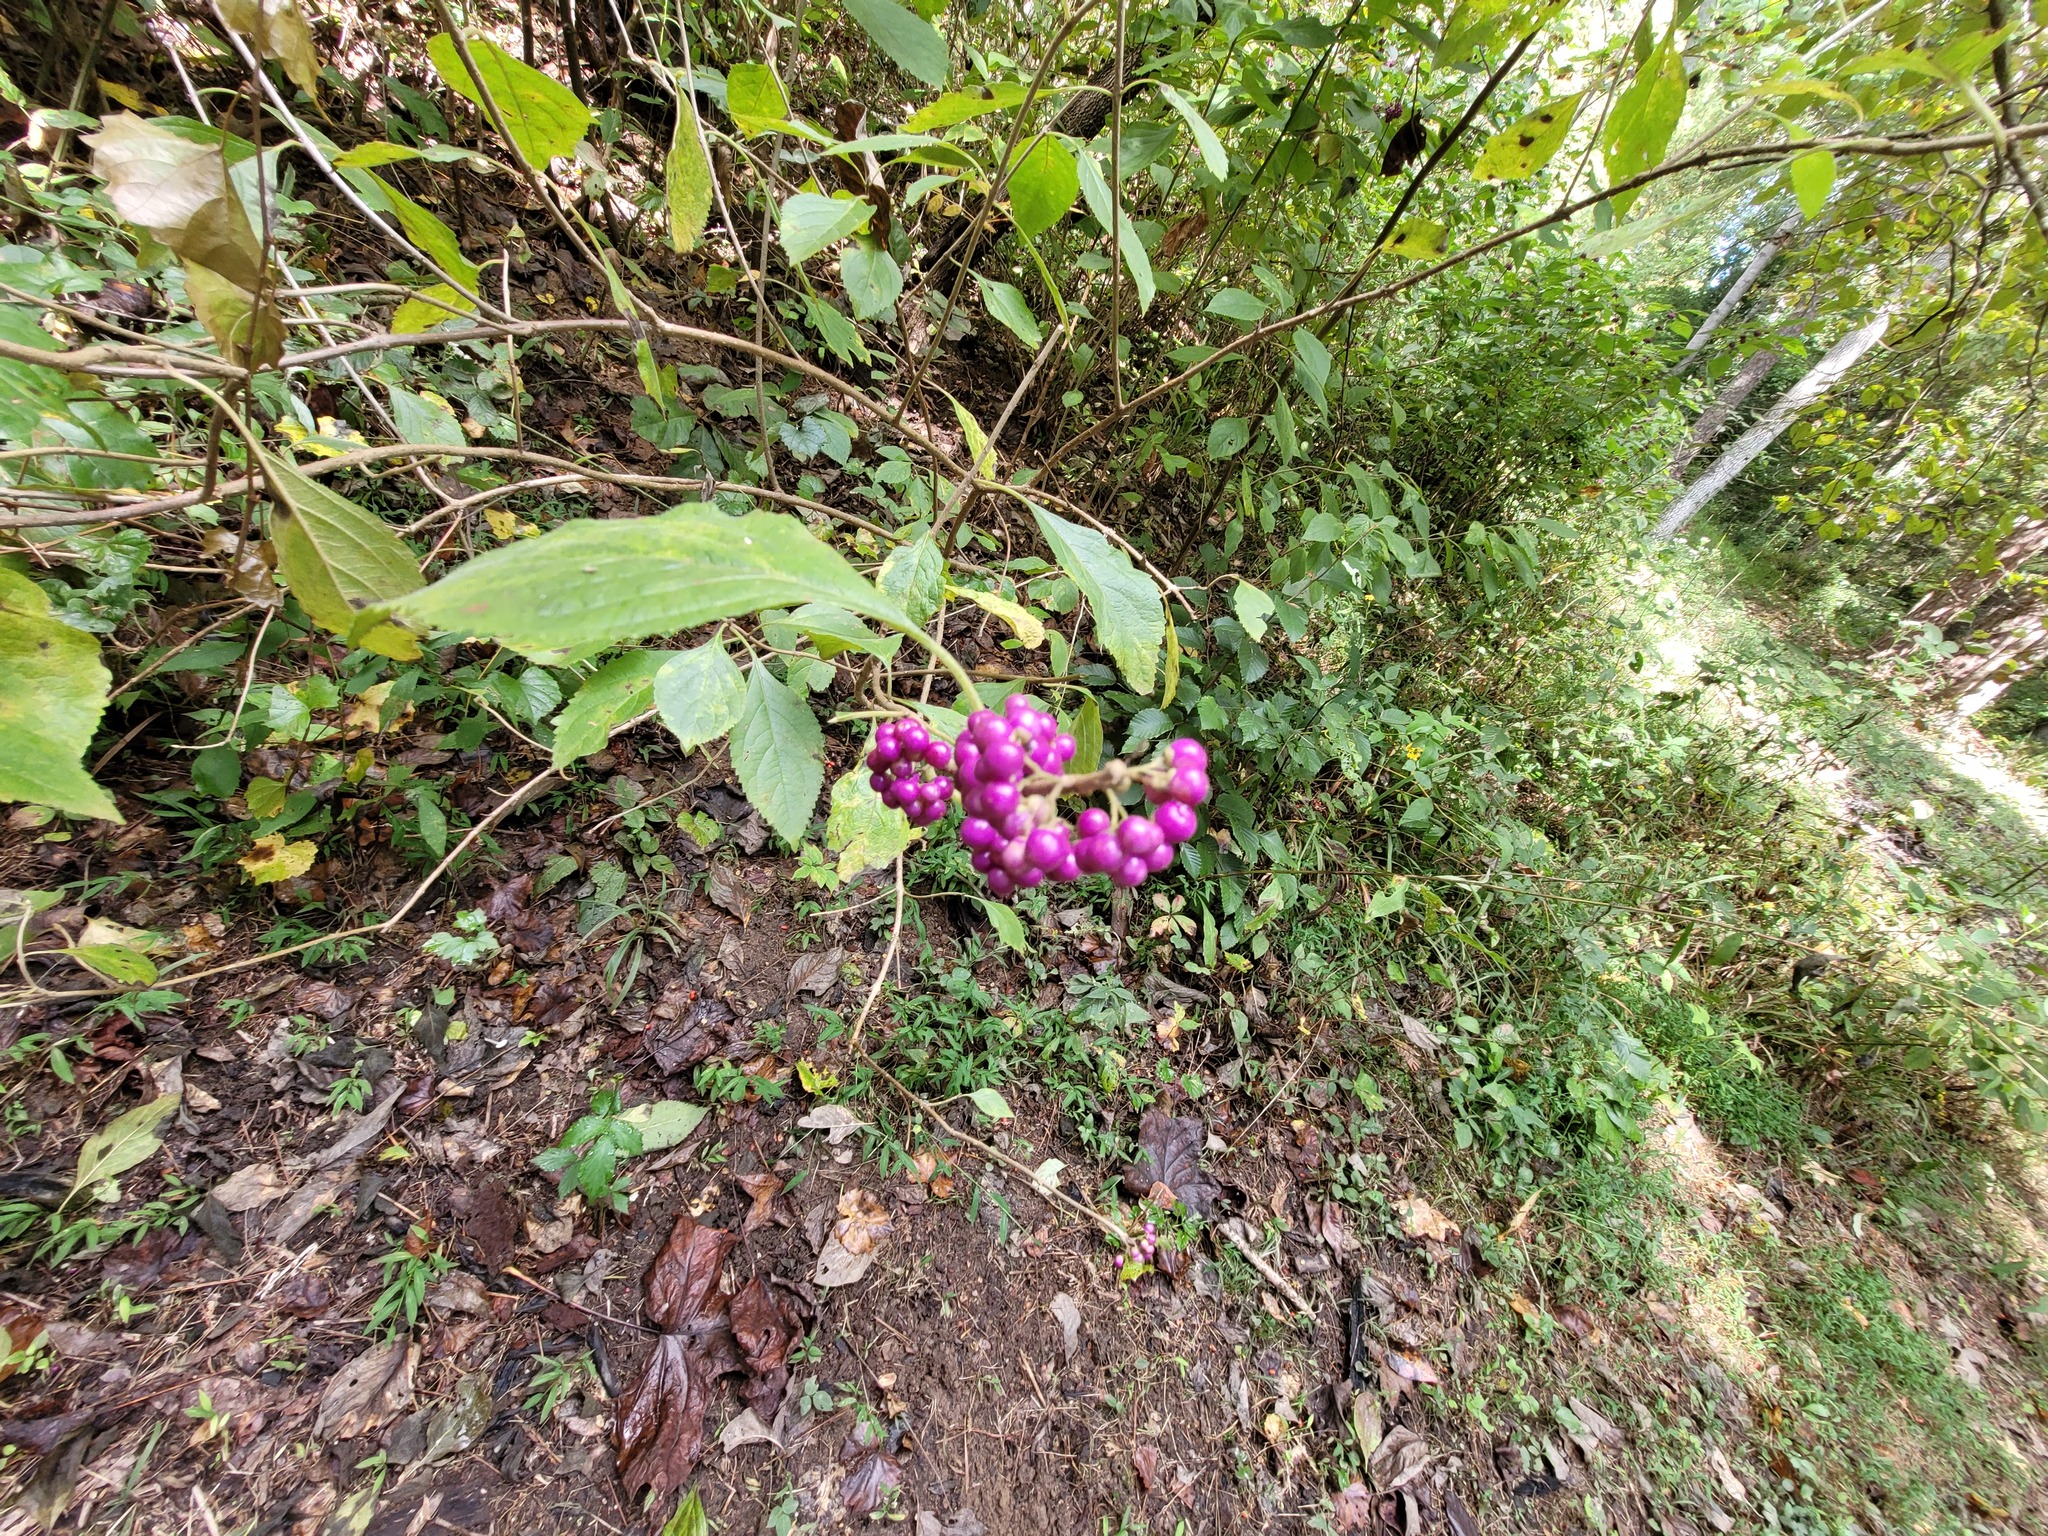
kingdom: Plantae
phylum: Tracheophyta
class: Magnoliopsida
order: Lamiales
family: Lamiaceae
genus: Callicarpa
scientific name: Callicarpa americana
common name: American beautyberry
